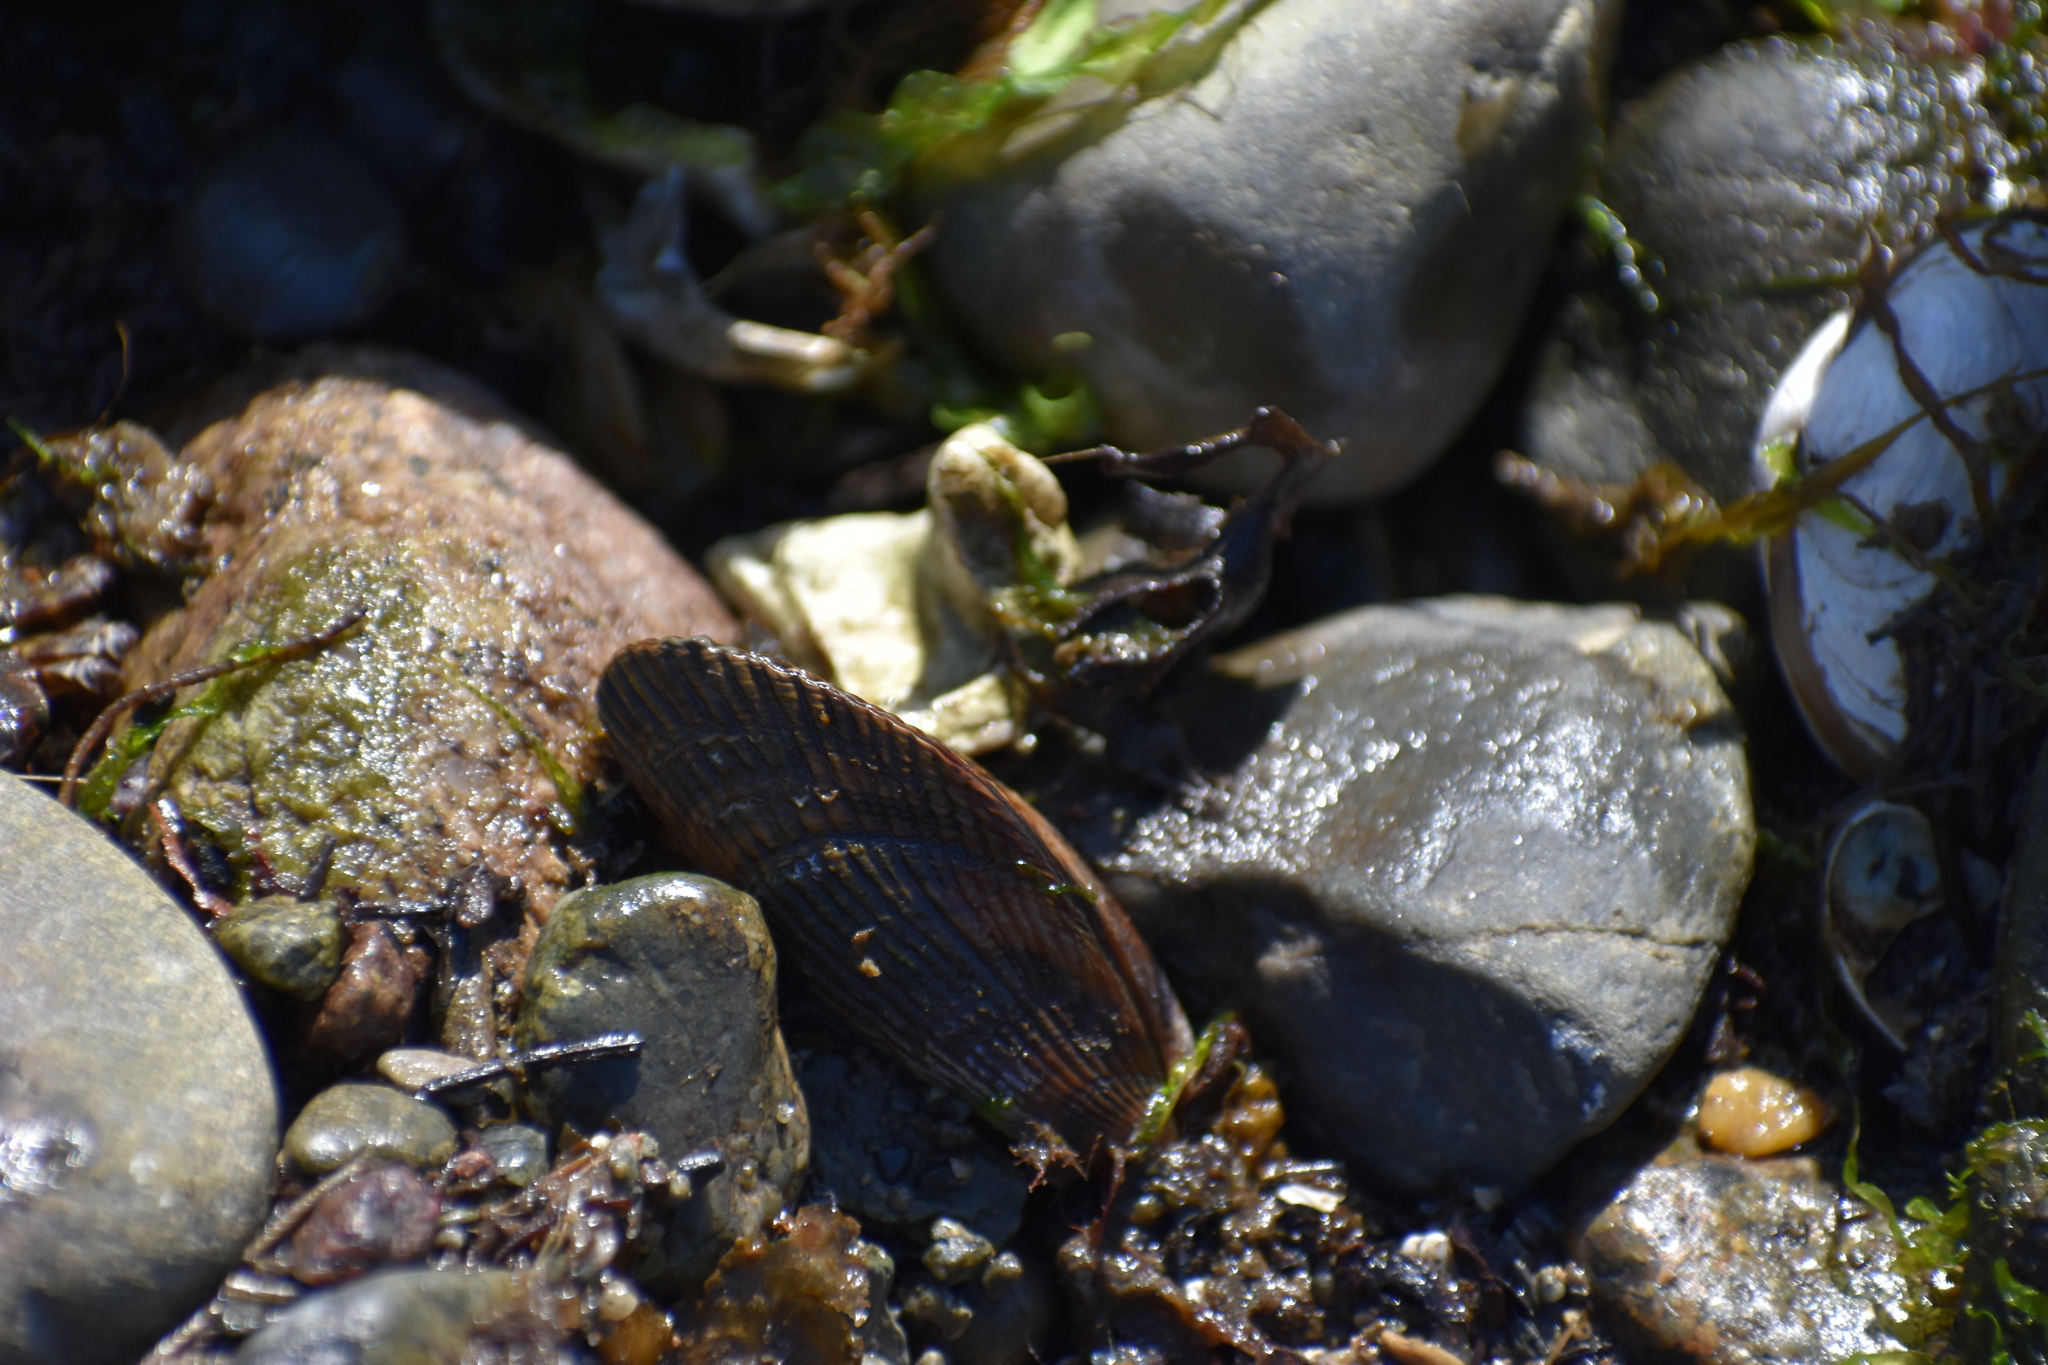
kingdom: Animalia
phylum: Mollusca
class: Bivalvia
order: Mytilida
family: Mytilidae
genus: Geukensia
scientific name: Geukensia demissa
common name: Ribbed mussel
